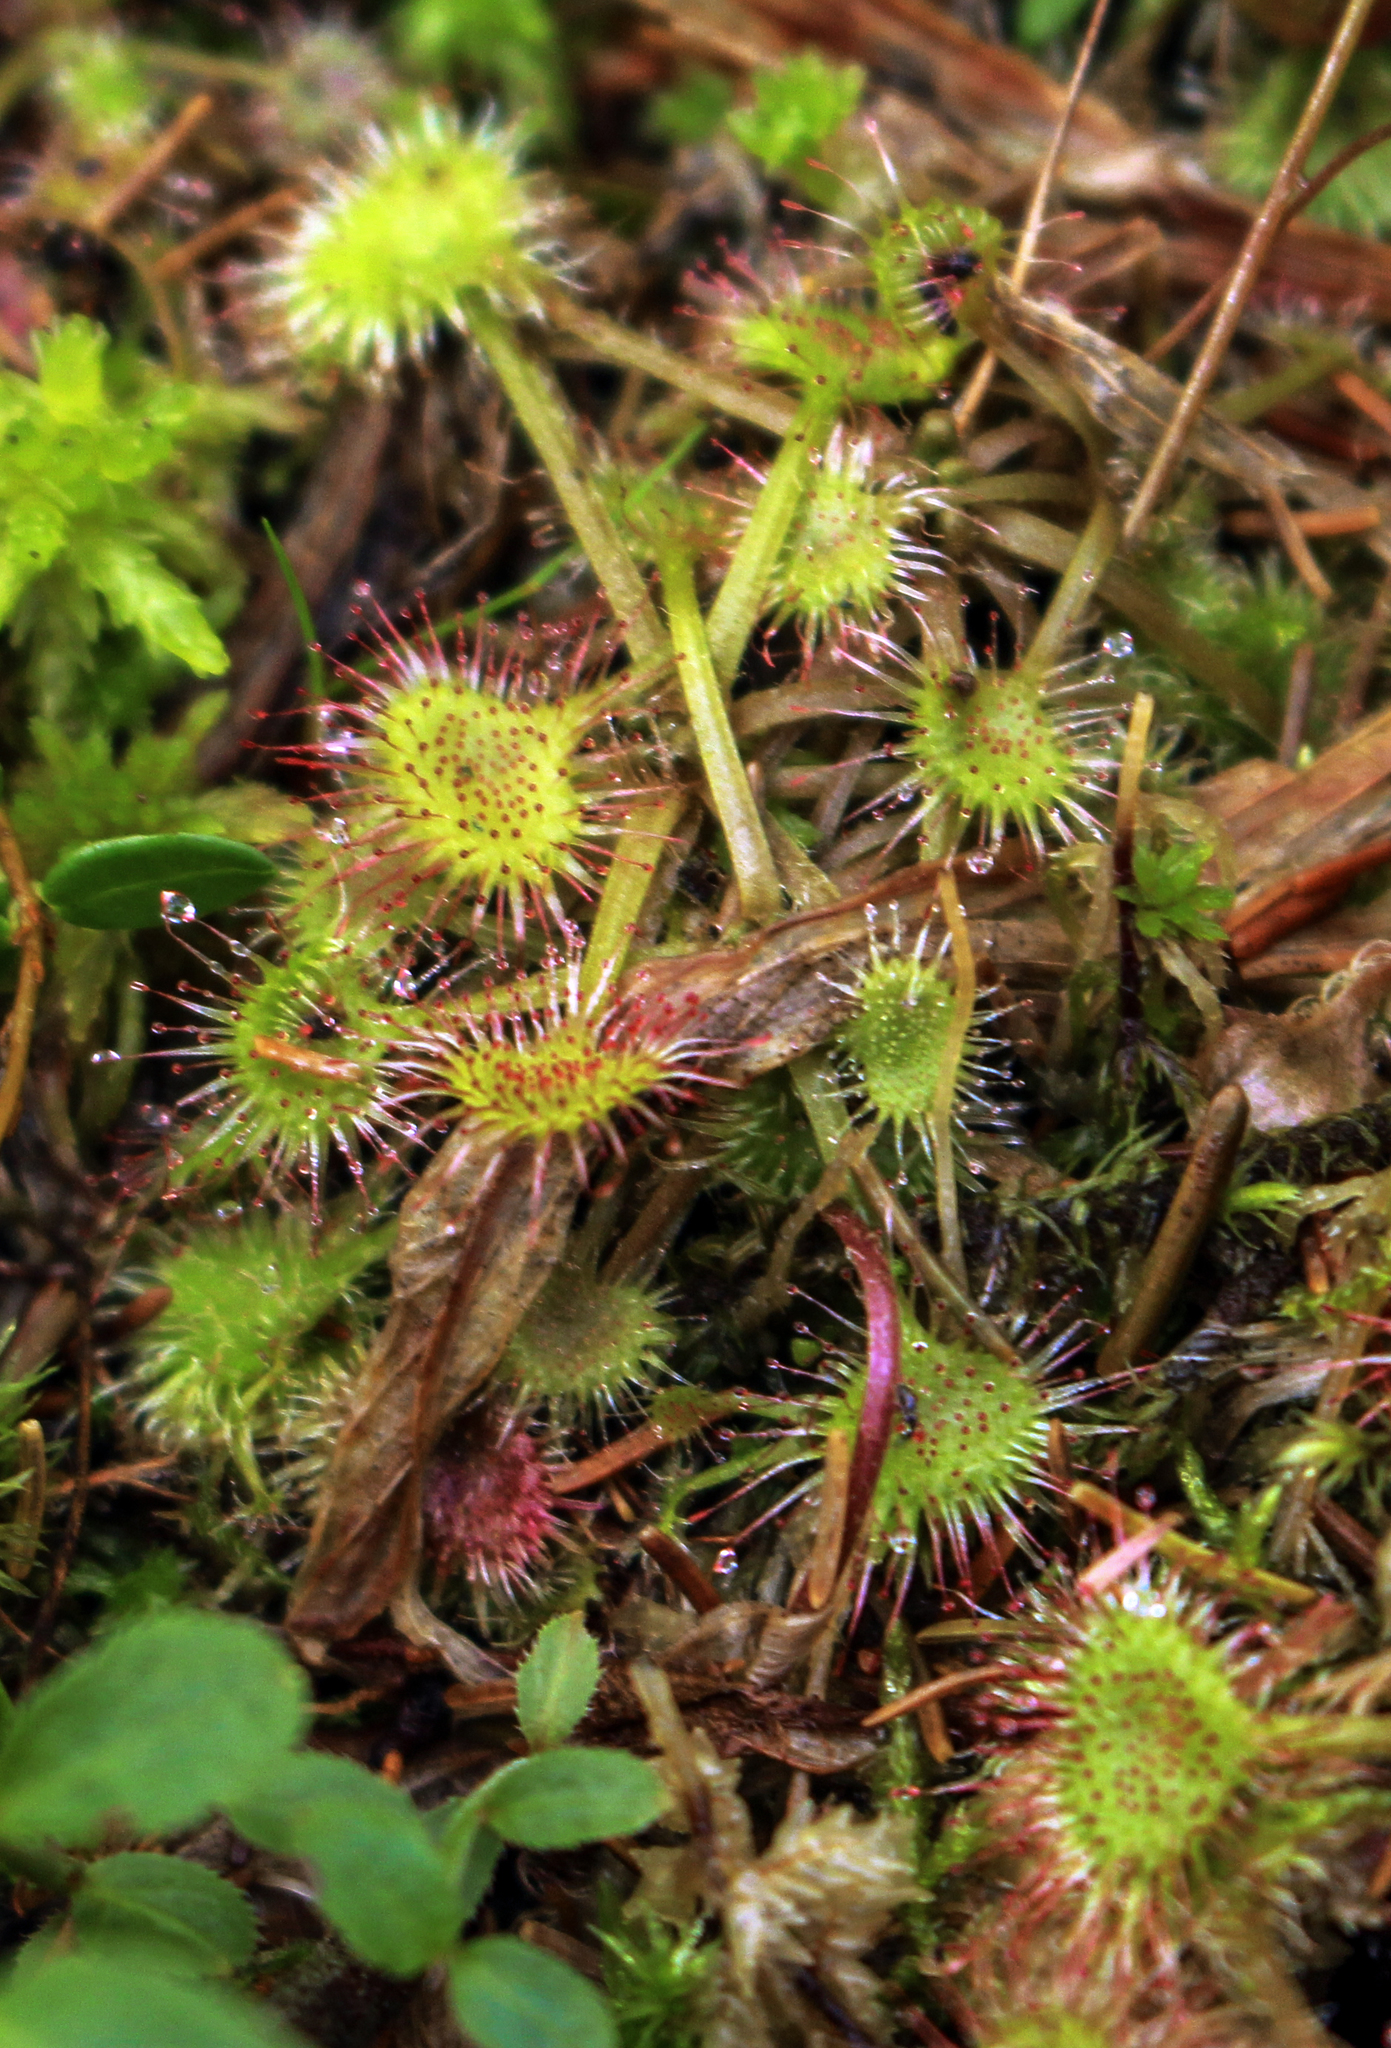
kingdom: Plantae
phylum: Tracheophyta
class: Magnoliopsida
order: Caryophyllales
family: Droseraceae
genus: Drosera
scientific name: Drosera rotundifolia
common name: Round-leaved sundew
